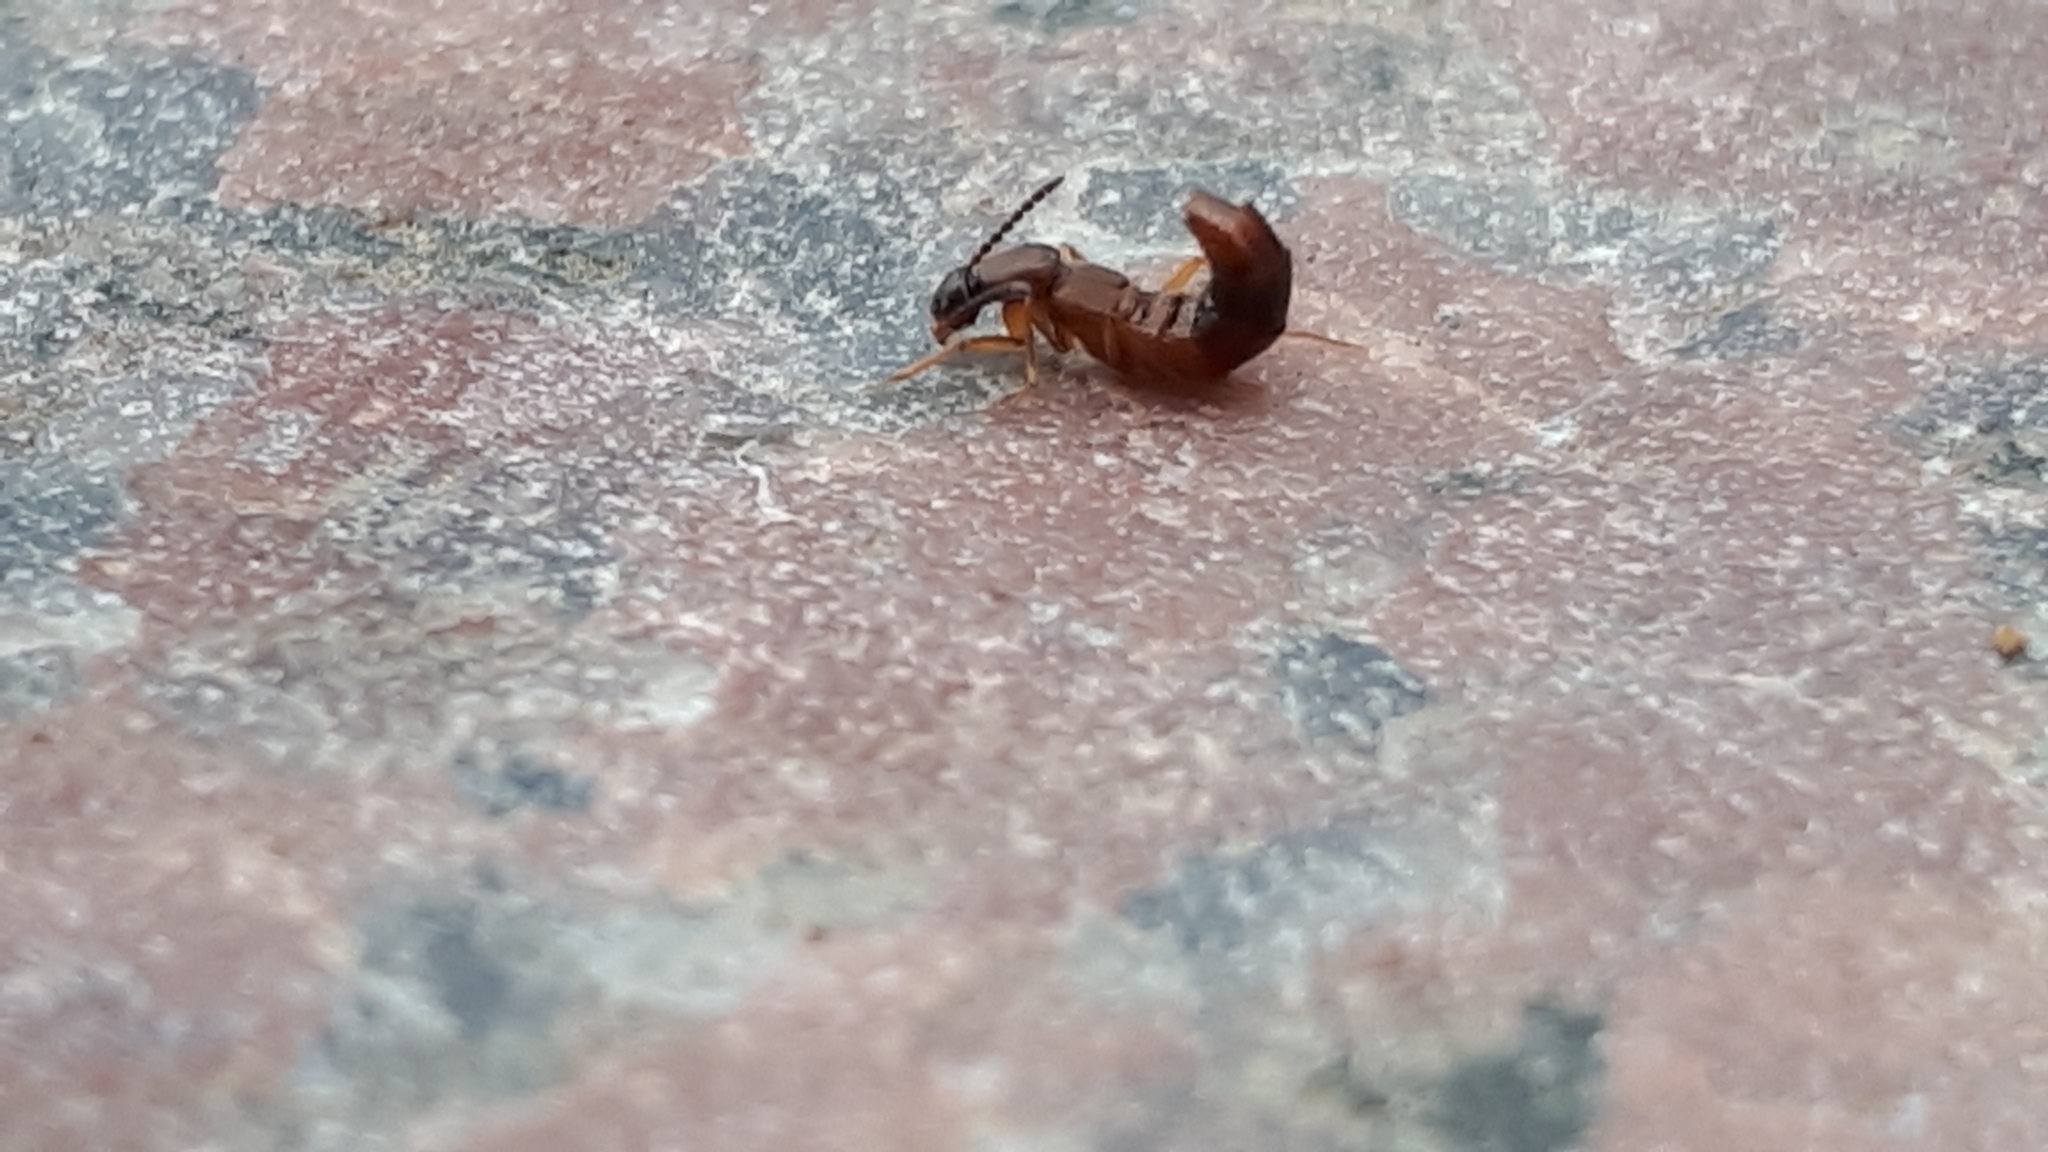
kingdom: Animalia
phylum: Arthropoda
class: Insecta
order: Coleoptera
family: Staphylinidae
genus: Drusilla
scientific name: Drusilla canaliculata
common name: Rove beetle
